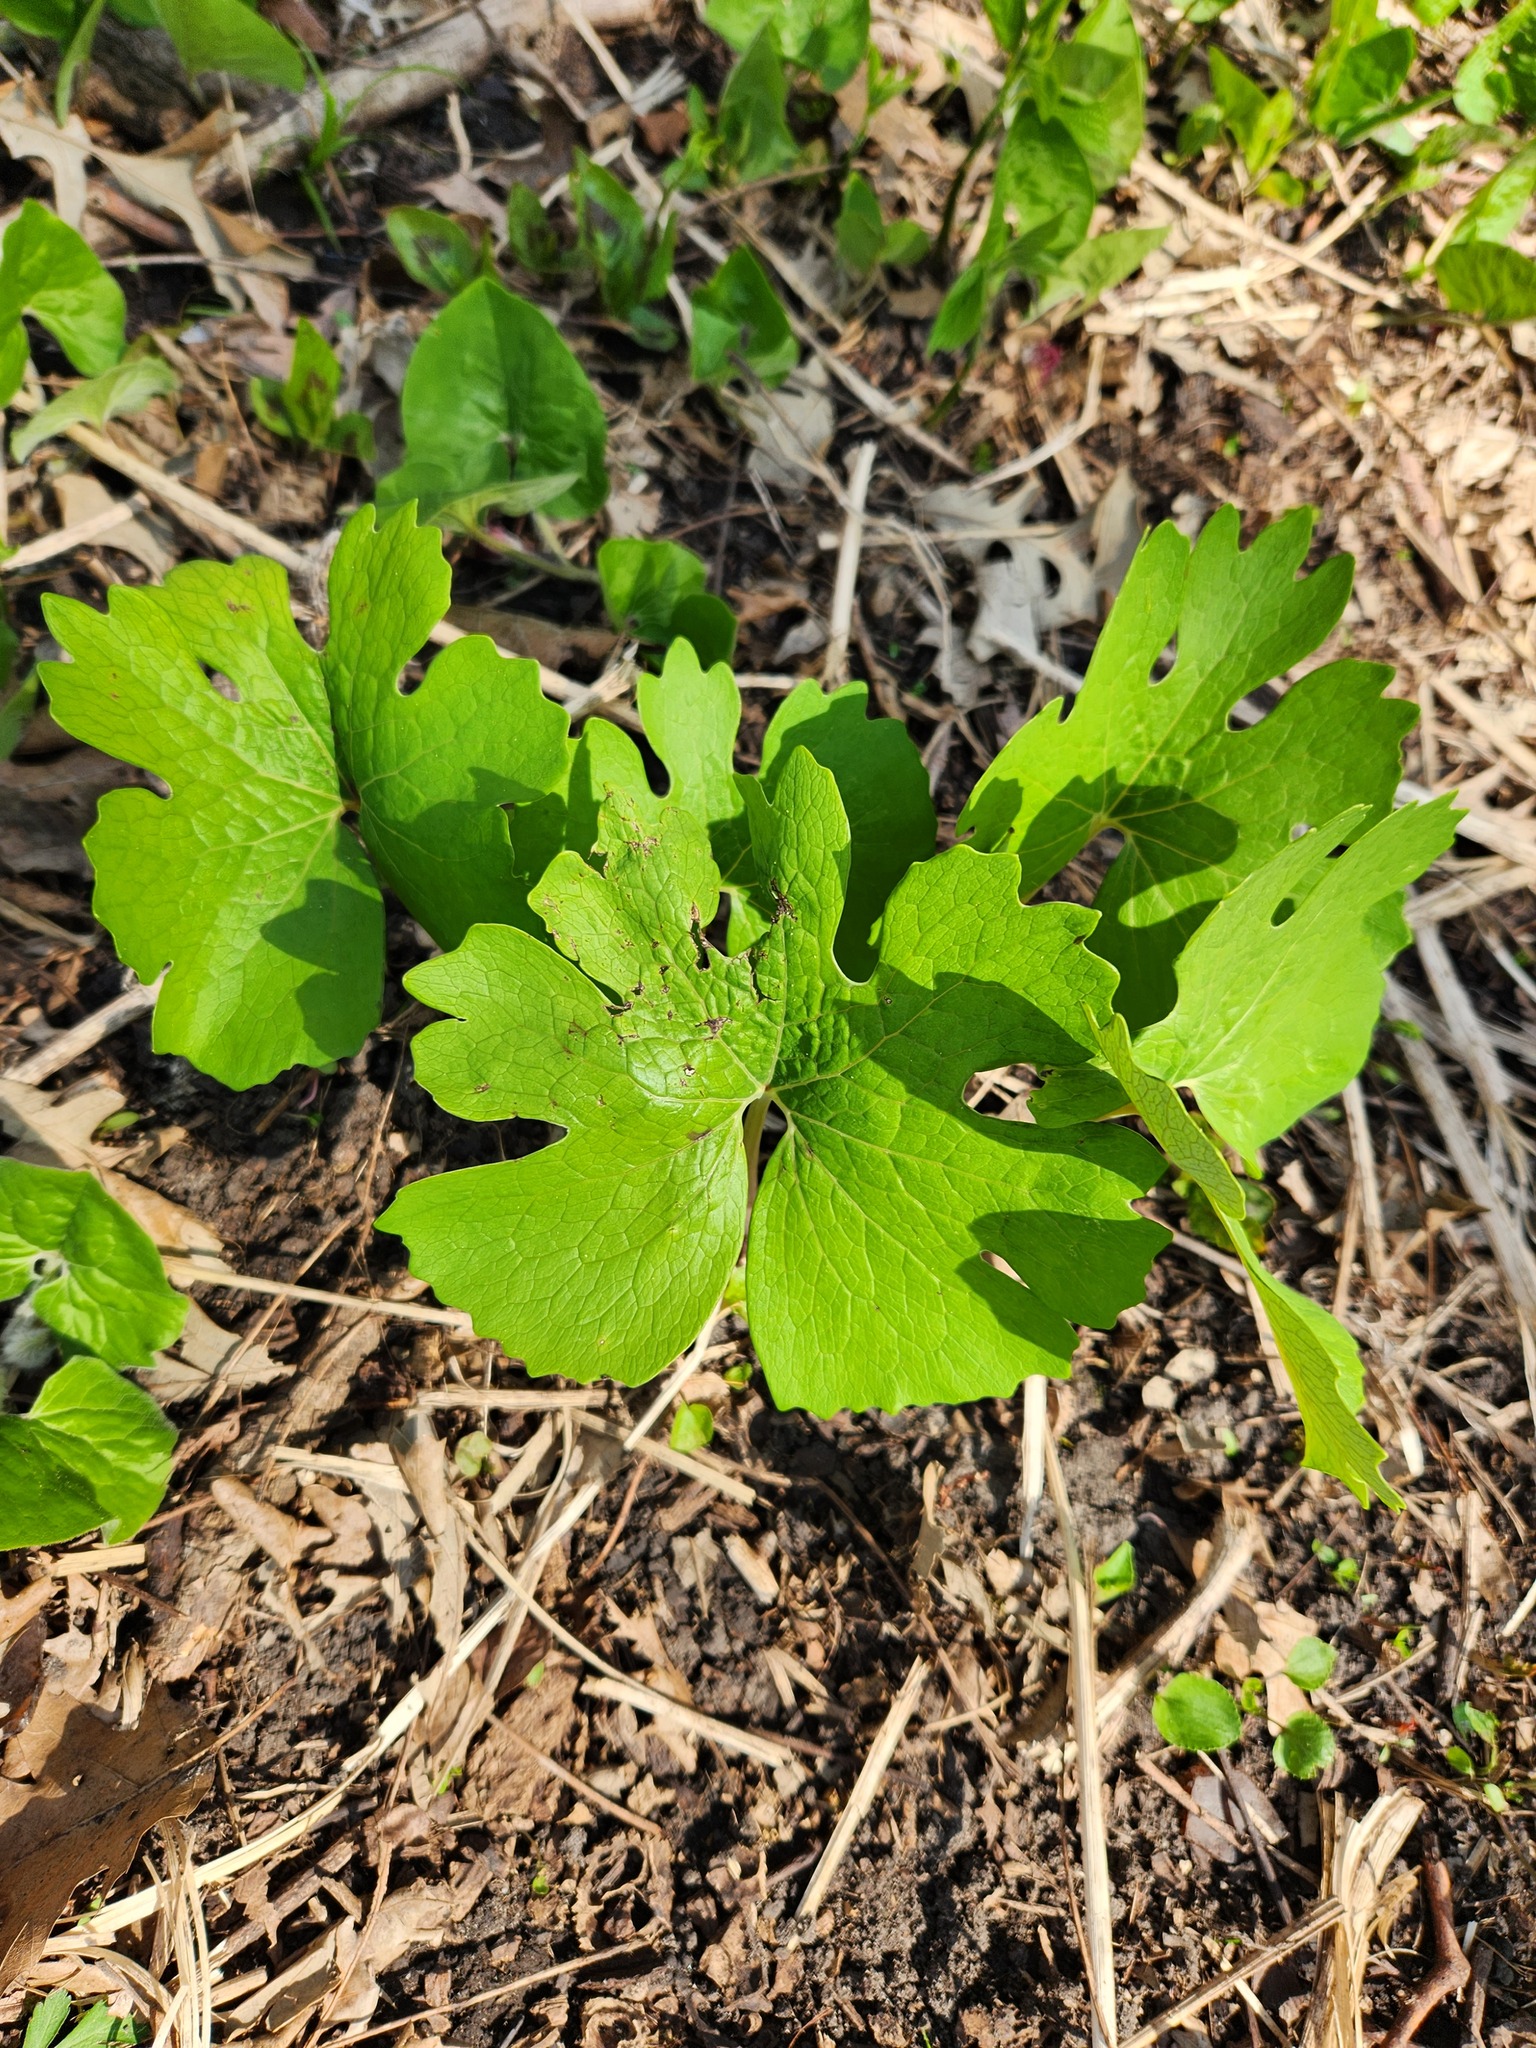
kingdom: Plantae
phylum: Tracheophyta
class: Magnoliopsida
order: Ranunculales
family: Papaveraceae
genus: Sanguinaria
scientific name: Sanguinaria canadensis
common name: Bloodroot
